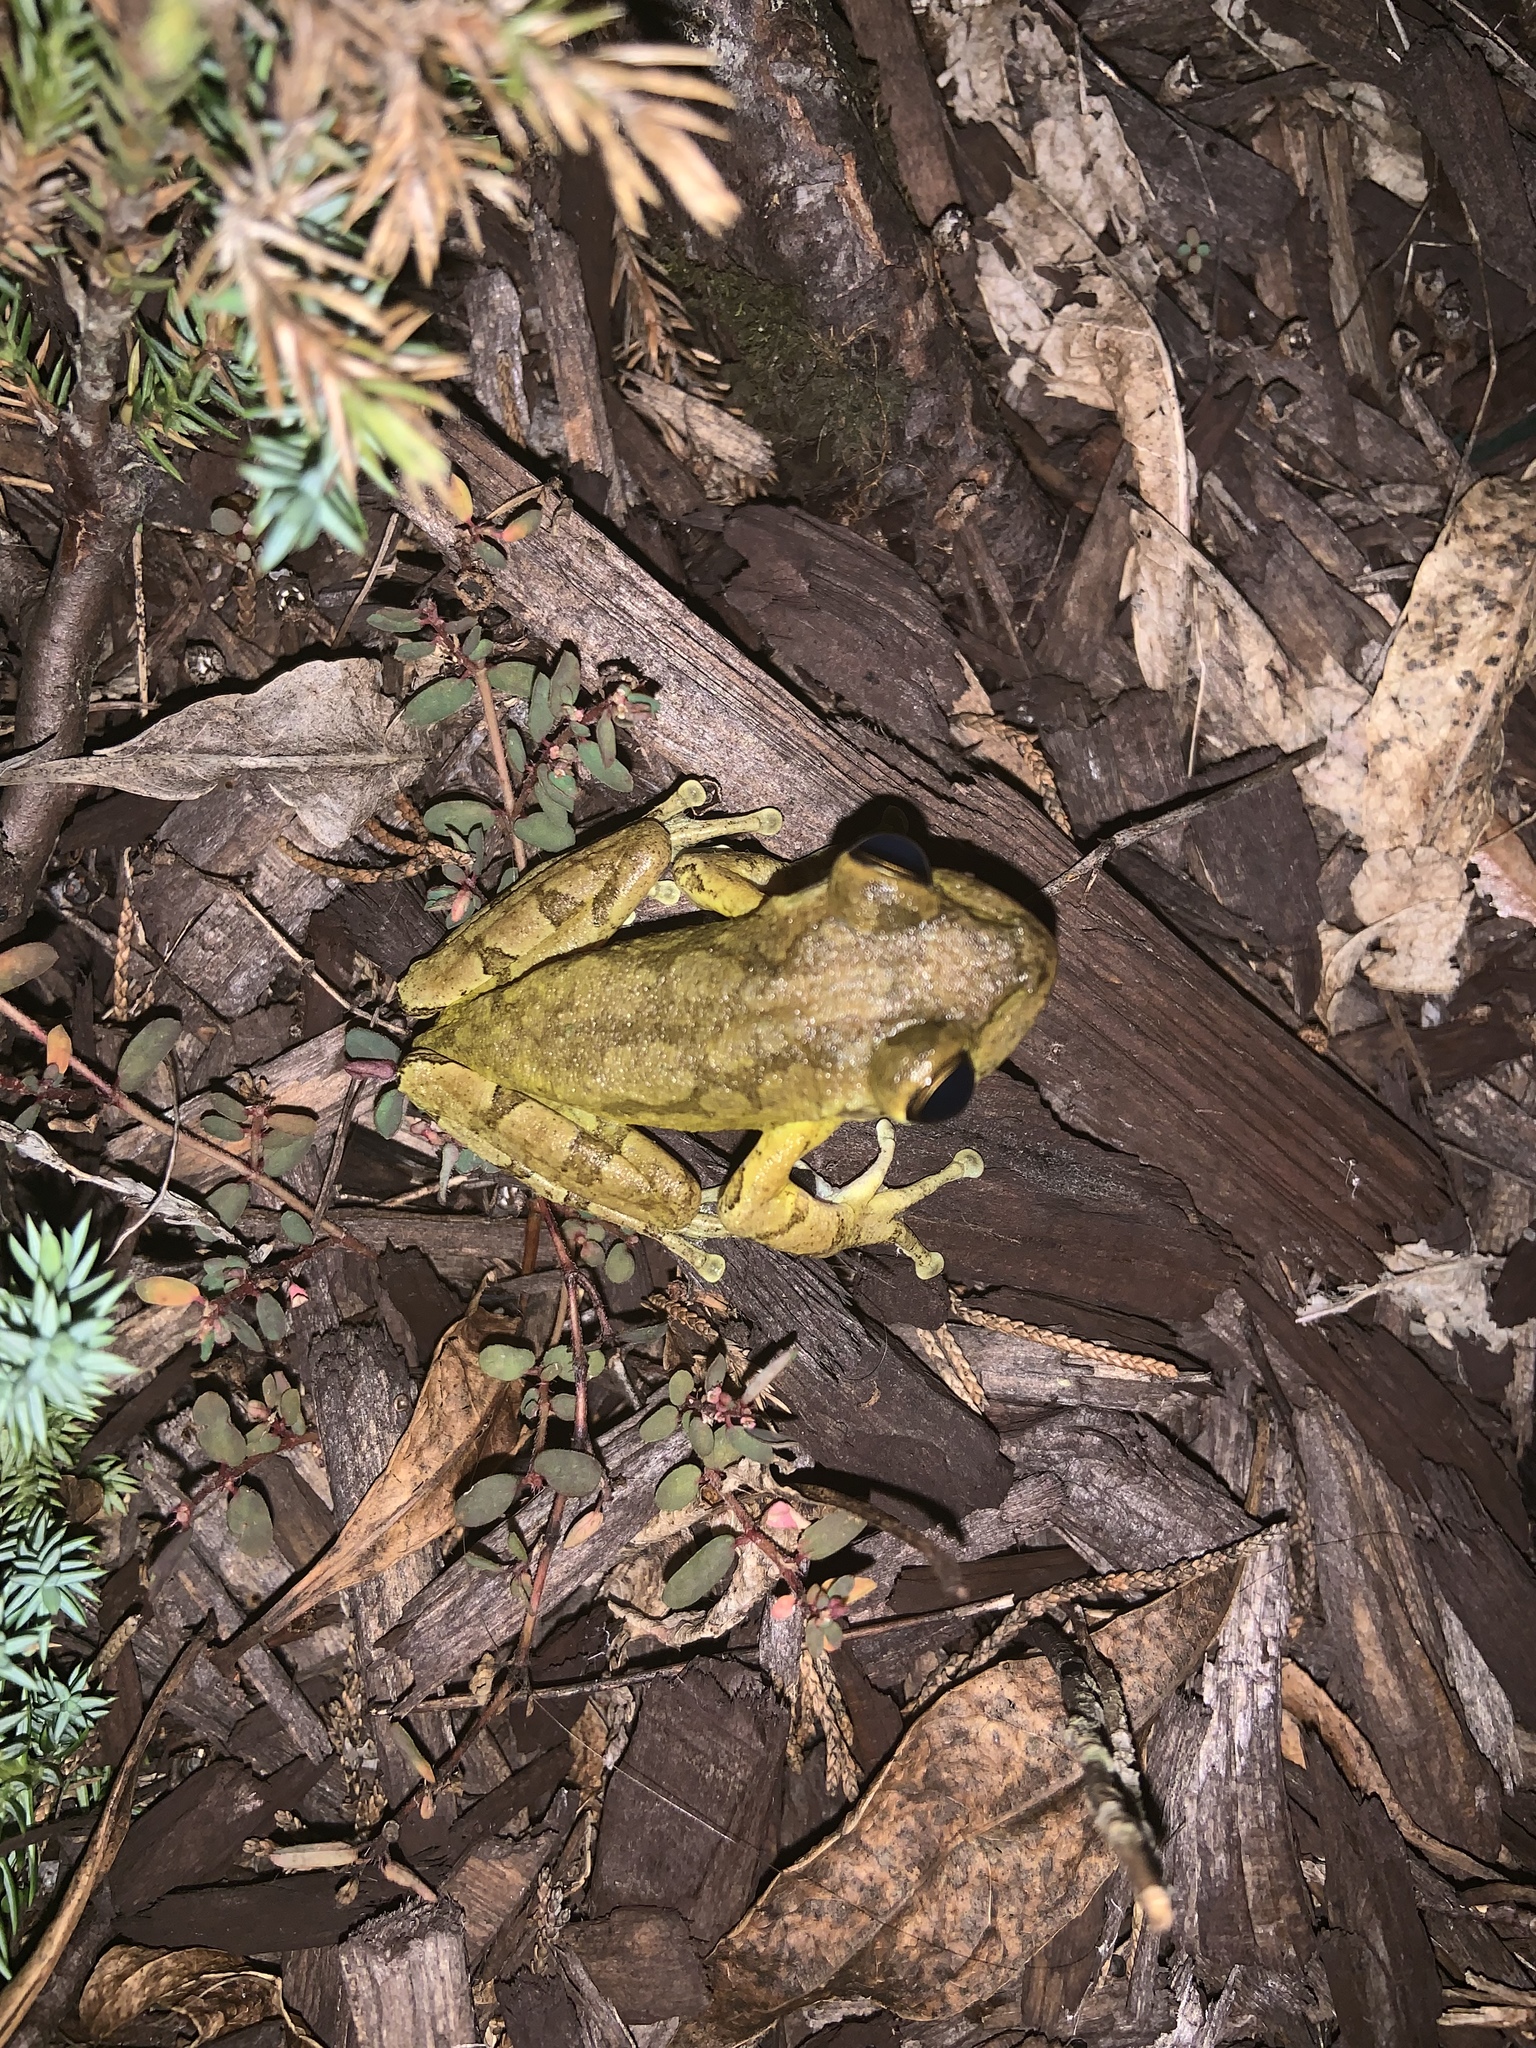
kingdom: Animalia
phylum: Chordata
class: Amphibia
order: Anura
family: Hylidae
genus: Osteopilus
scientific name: Osteopilus septentrionalis
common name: Cuban treefrog
